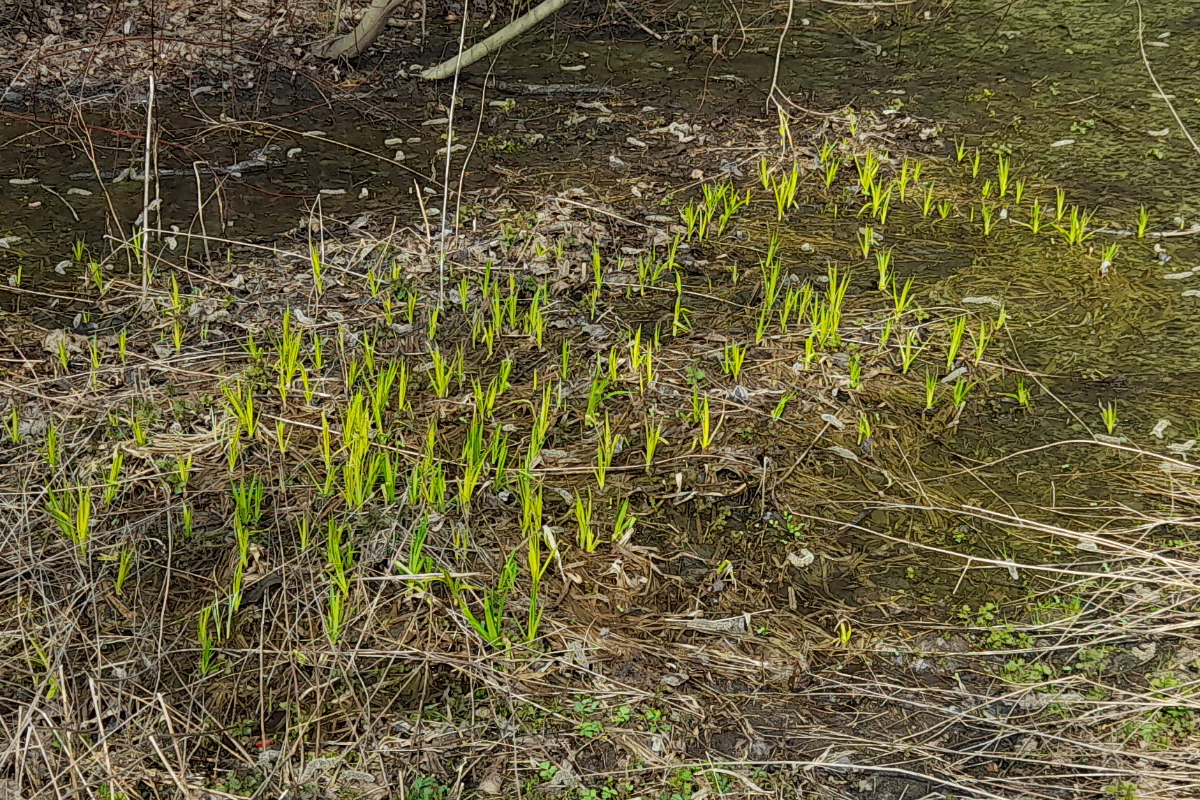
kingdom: Plantae
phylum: Tracheophyta
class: Liliopsida
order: Poales
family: Cyperaceae
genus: Scirpus
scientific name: Scirpus sylvaticus
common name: Wood club-rush
